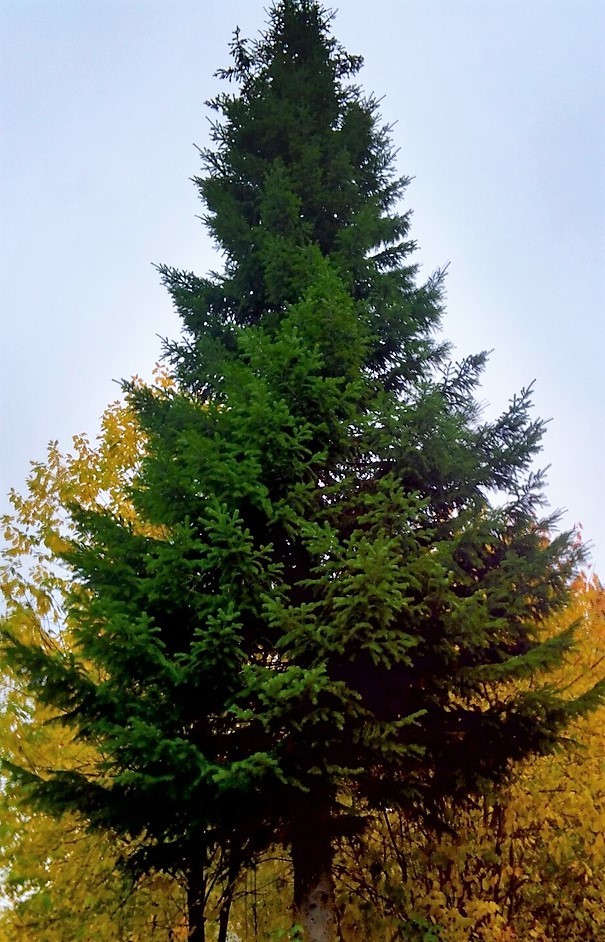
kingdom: Plantae
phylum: Tracheophyta
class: Pinopsida
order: Pinales
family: Pinaceae
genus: Abies
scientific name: Abies sibirica
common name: Siberian fir
